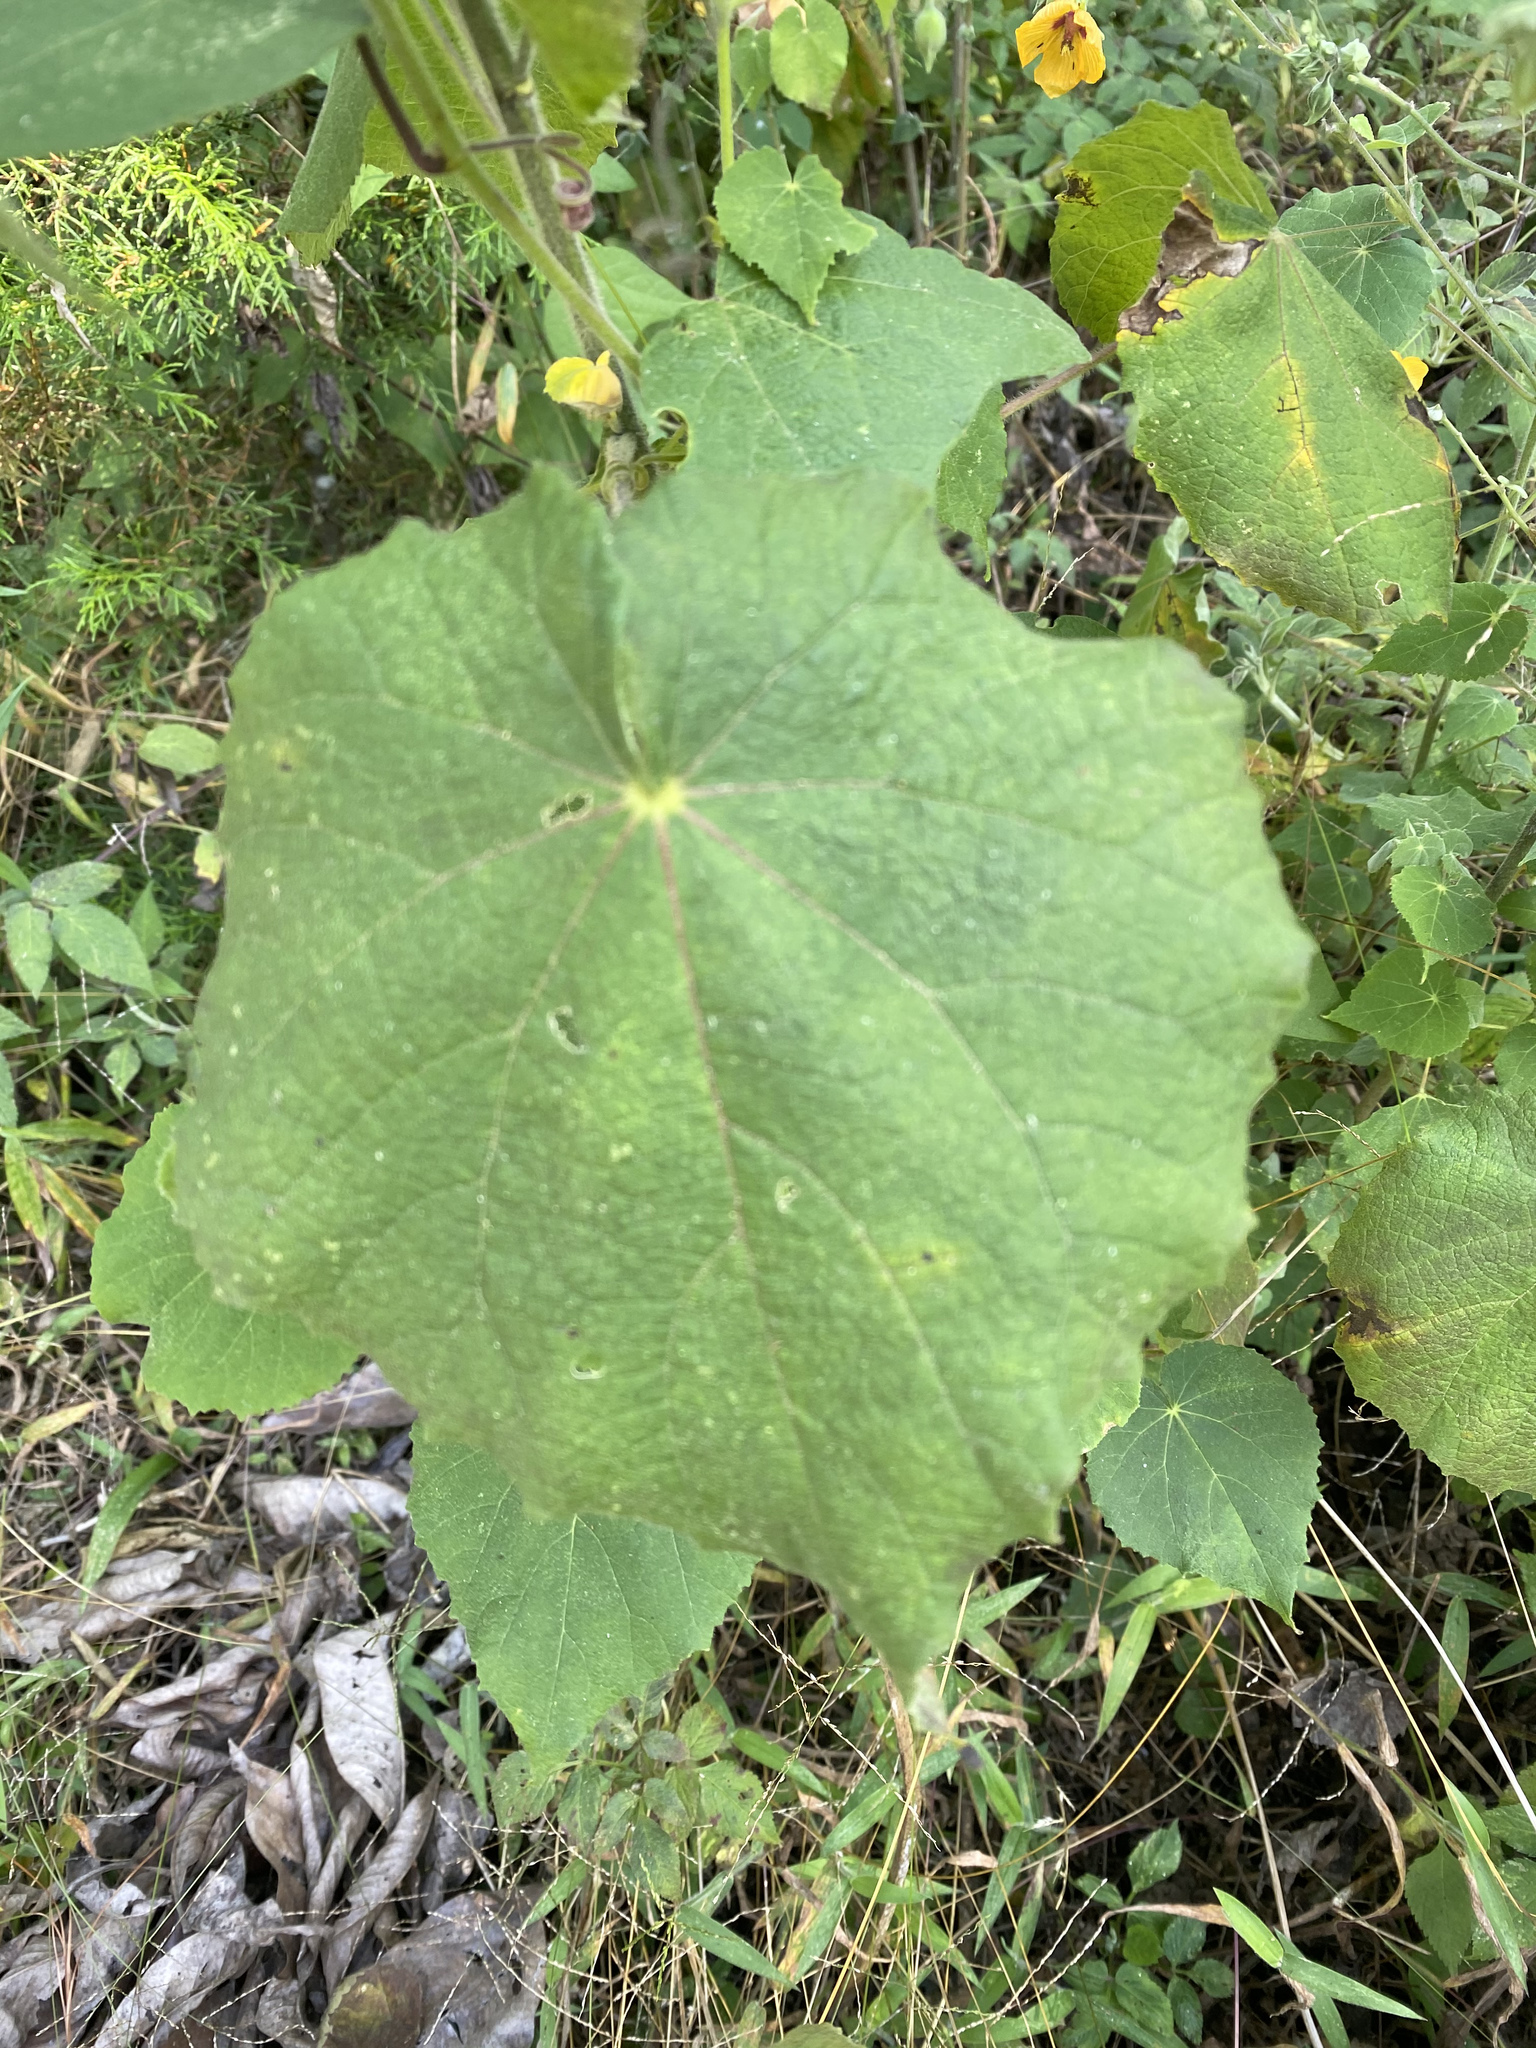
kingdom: Plantae
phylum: Tracheophyta
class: Magnoliopsida
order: Malvales
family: Malvaceae
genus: Abutilon
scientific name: Abutilon divaricatum
